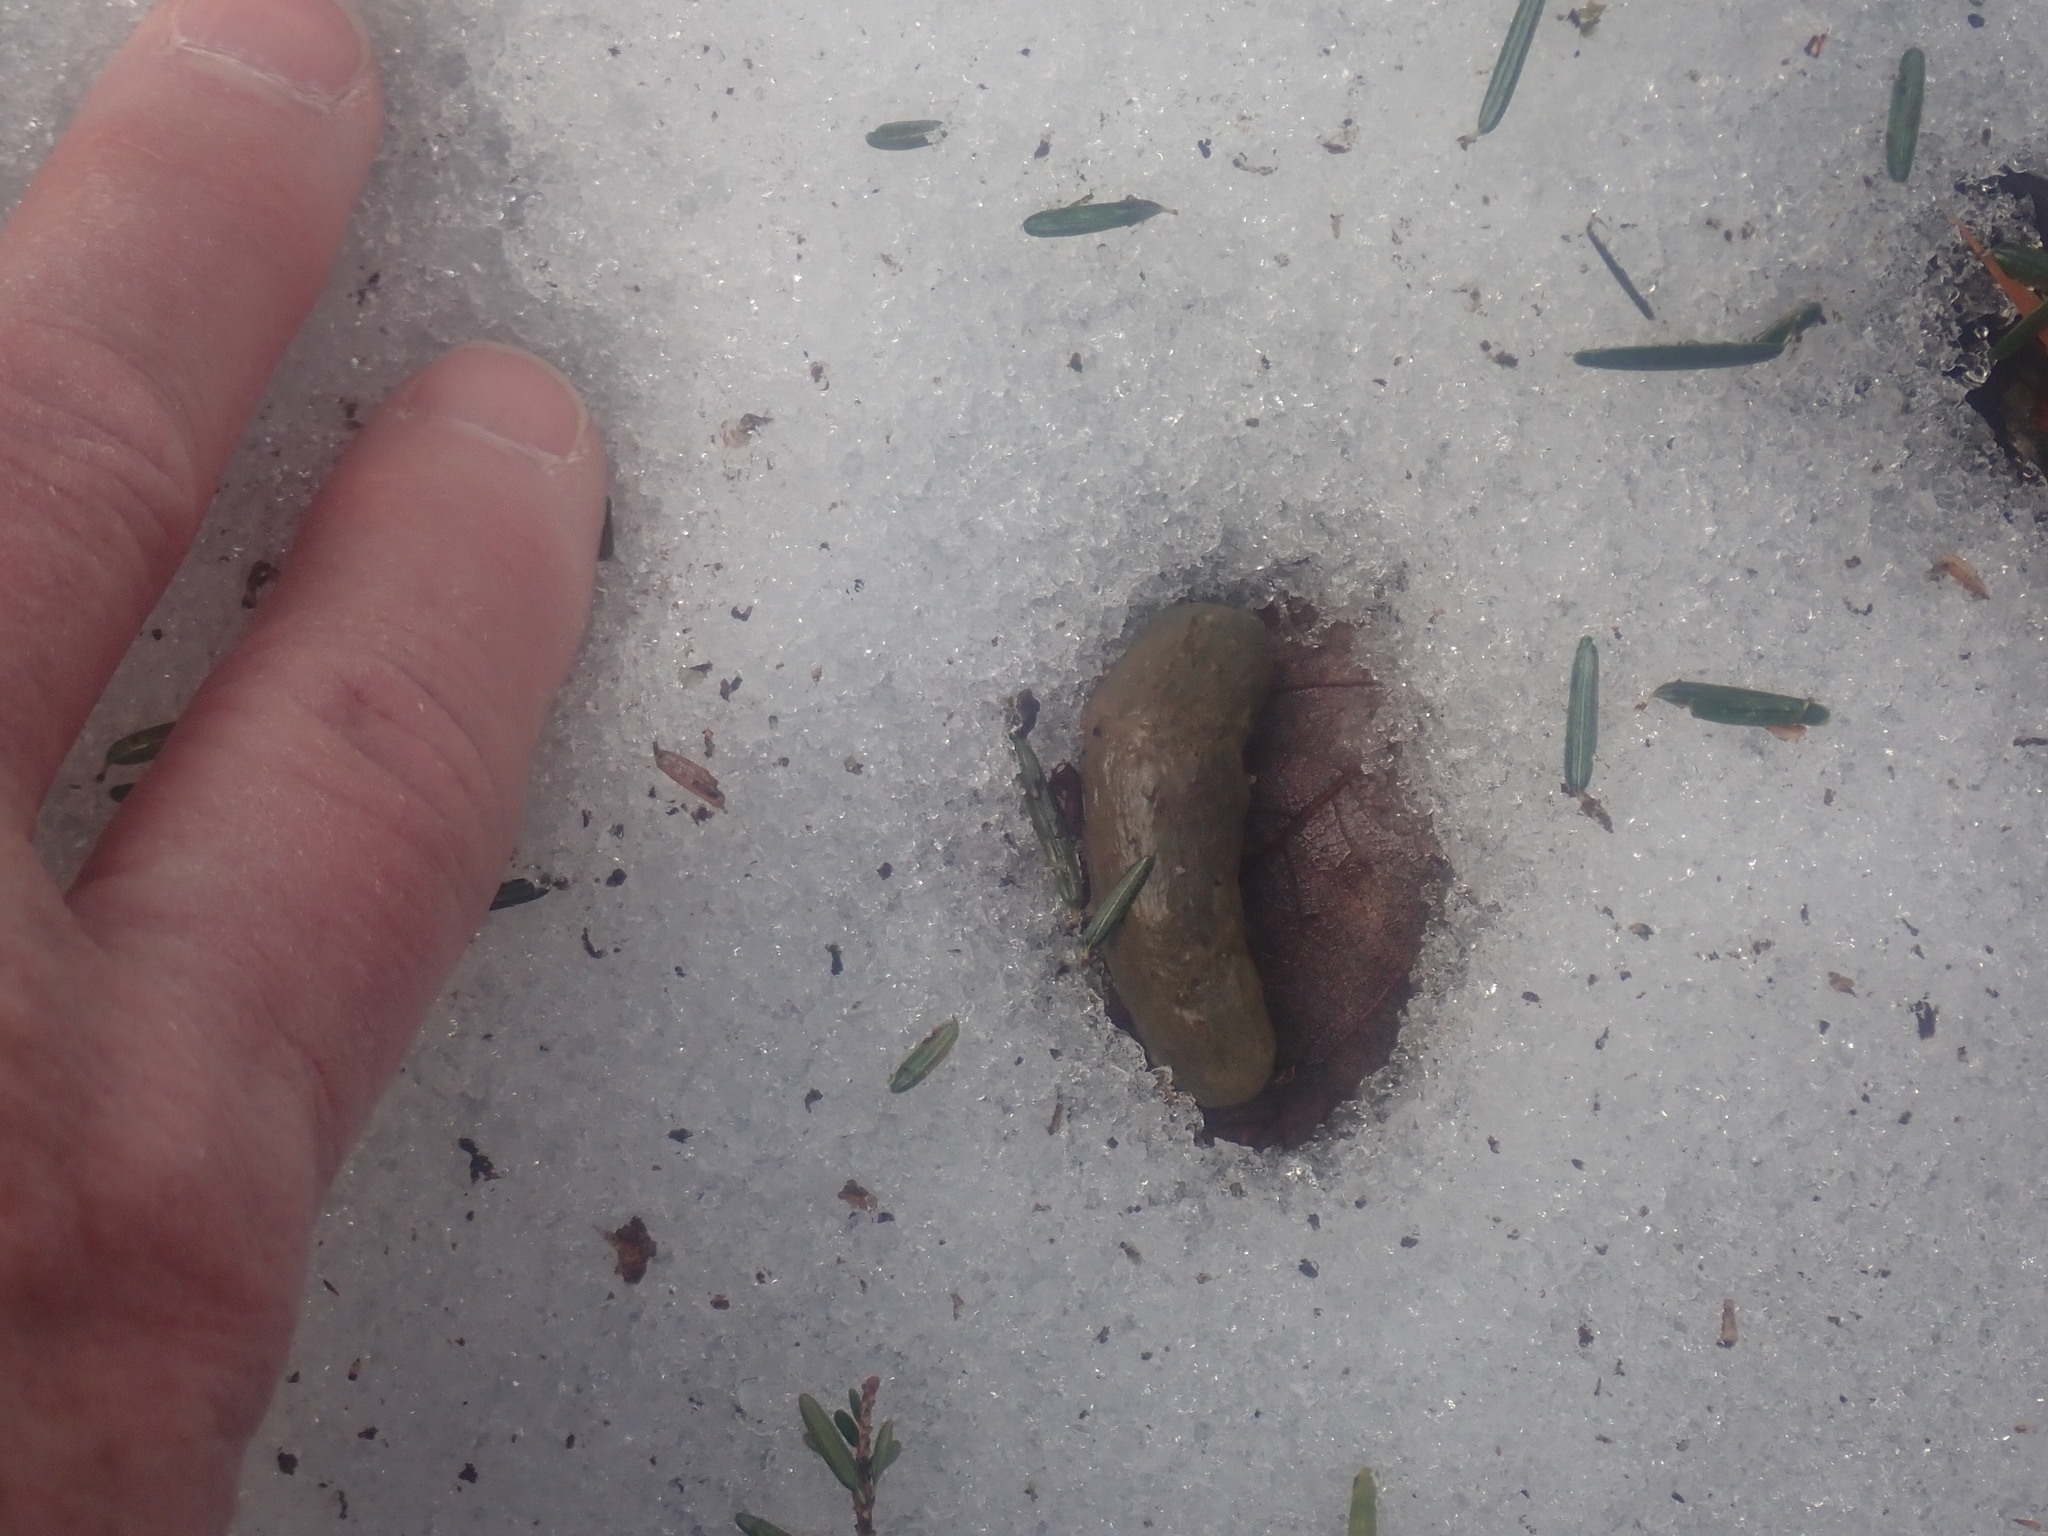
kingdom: Animalia
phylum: Chordata
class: Mammalia
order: Rodentia
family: Erethizontidae
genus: Erethizon
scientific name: Erethizon dorsatus
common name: North american porcupine
